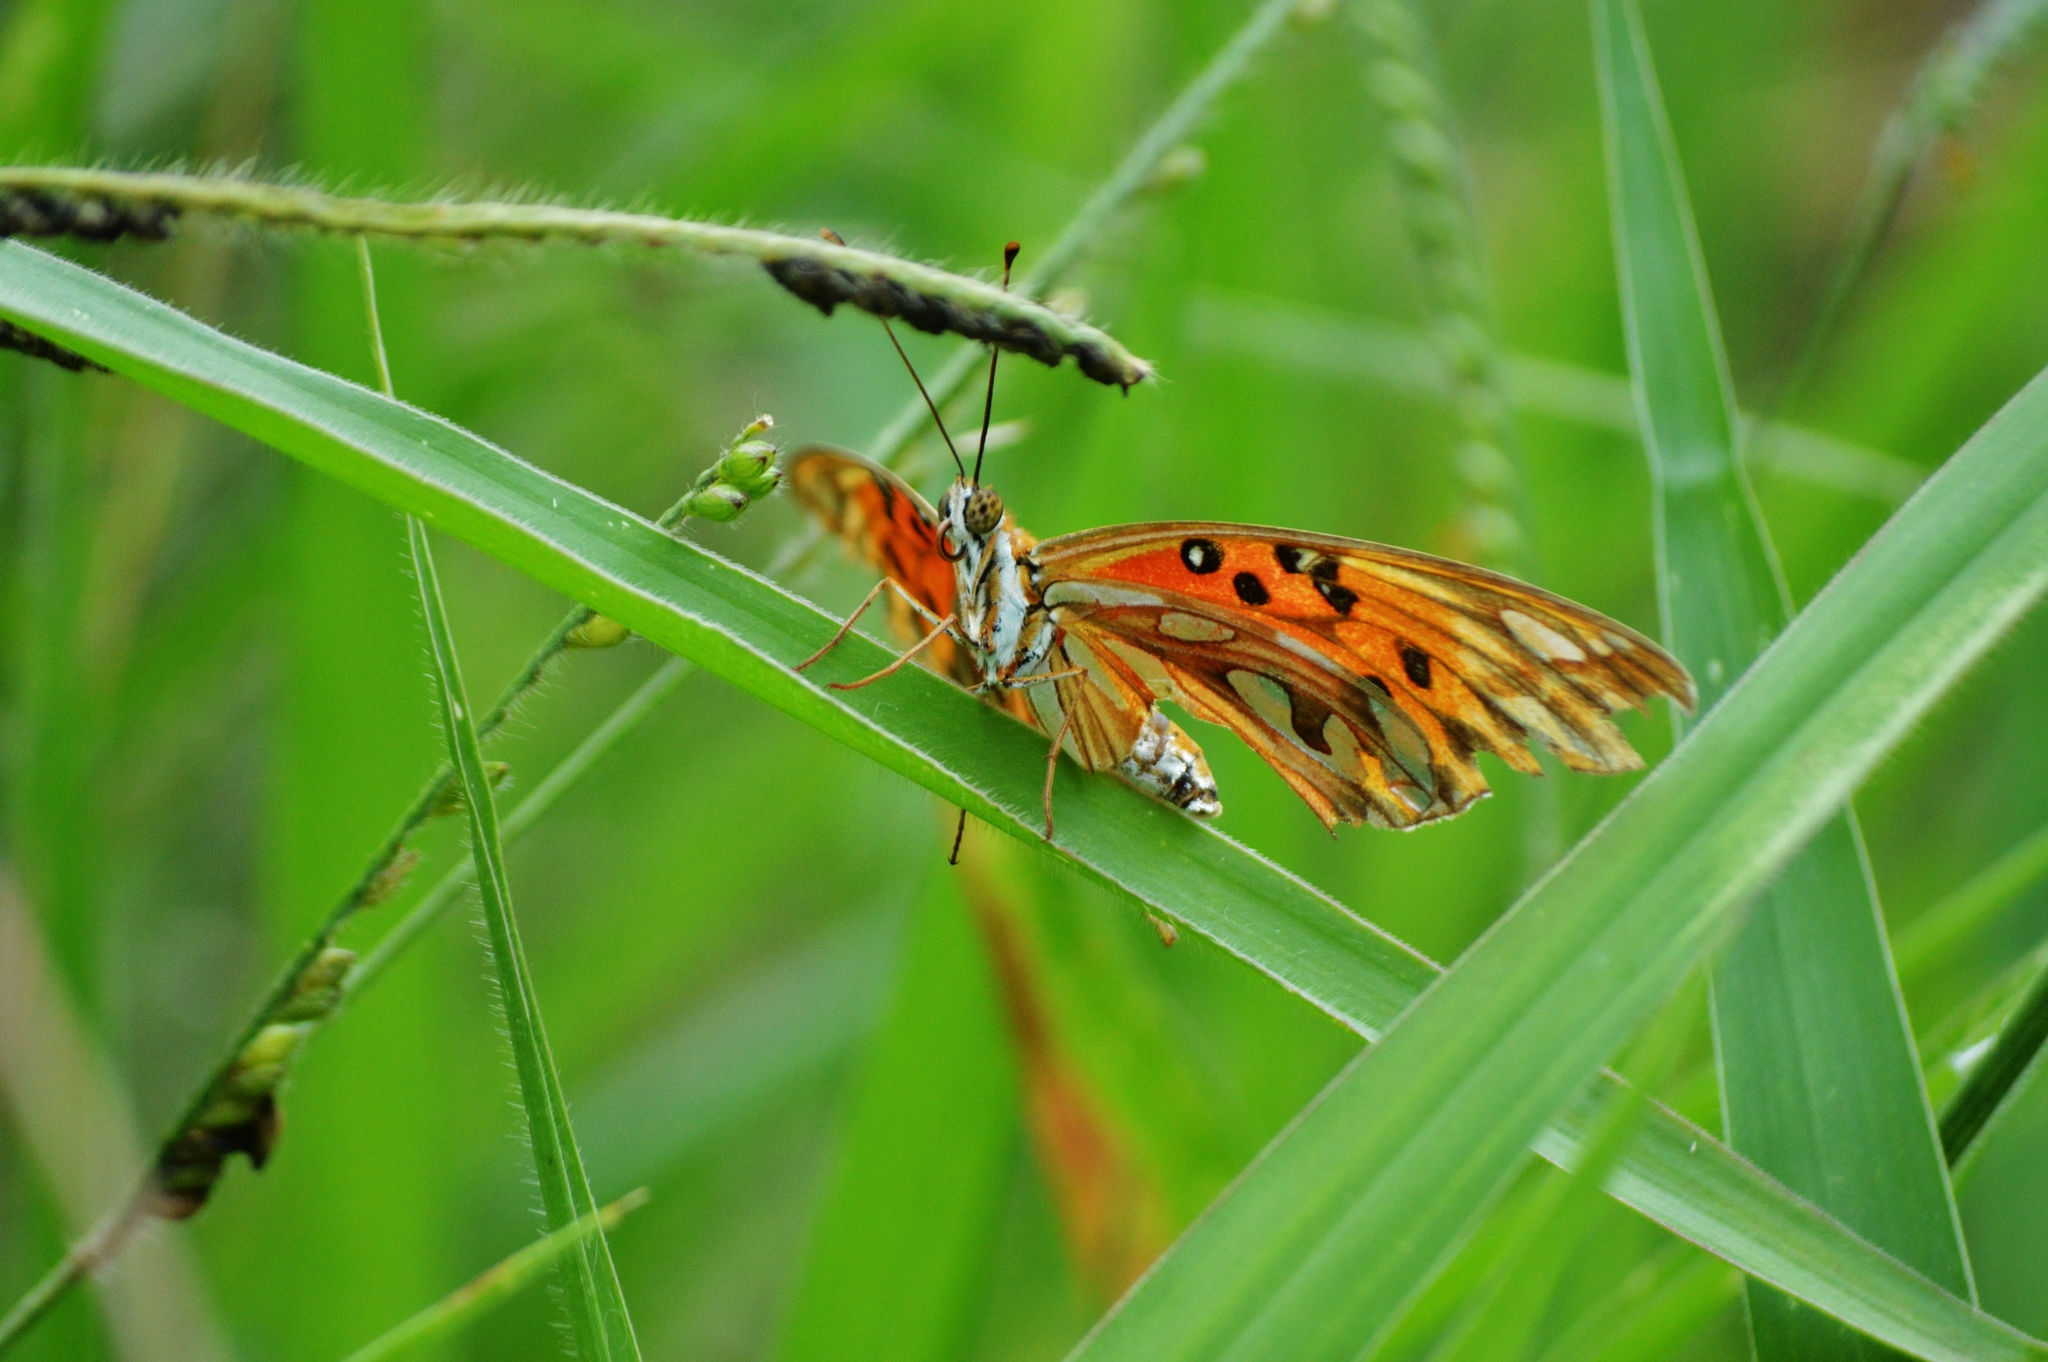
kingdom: Animalia
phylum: Arthropoda
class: Insecta
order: Lepidoptera
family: Nymphalidae
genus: Dione
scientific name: Dione vanillae
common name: Gulf fritillary
